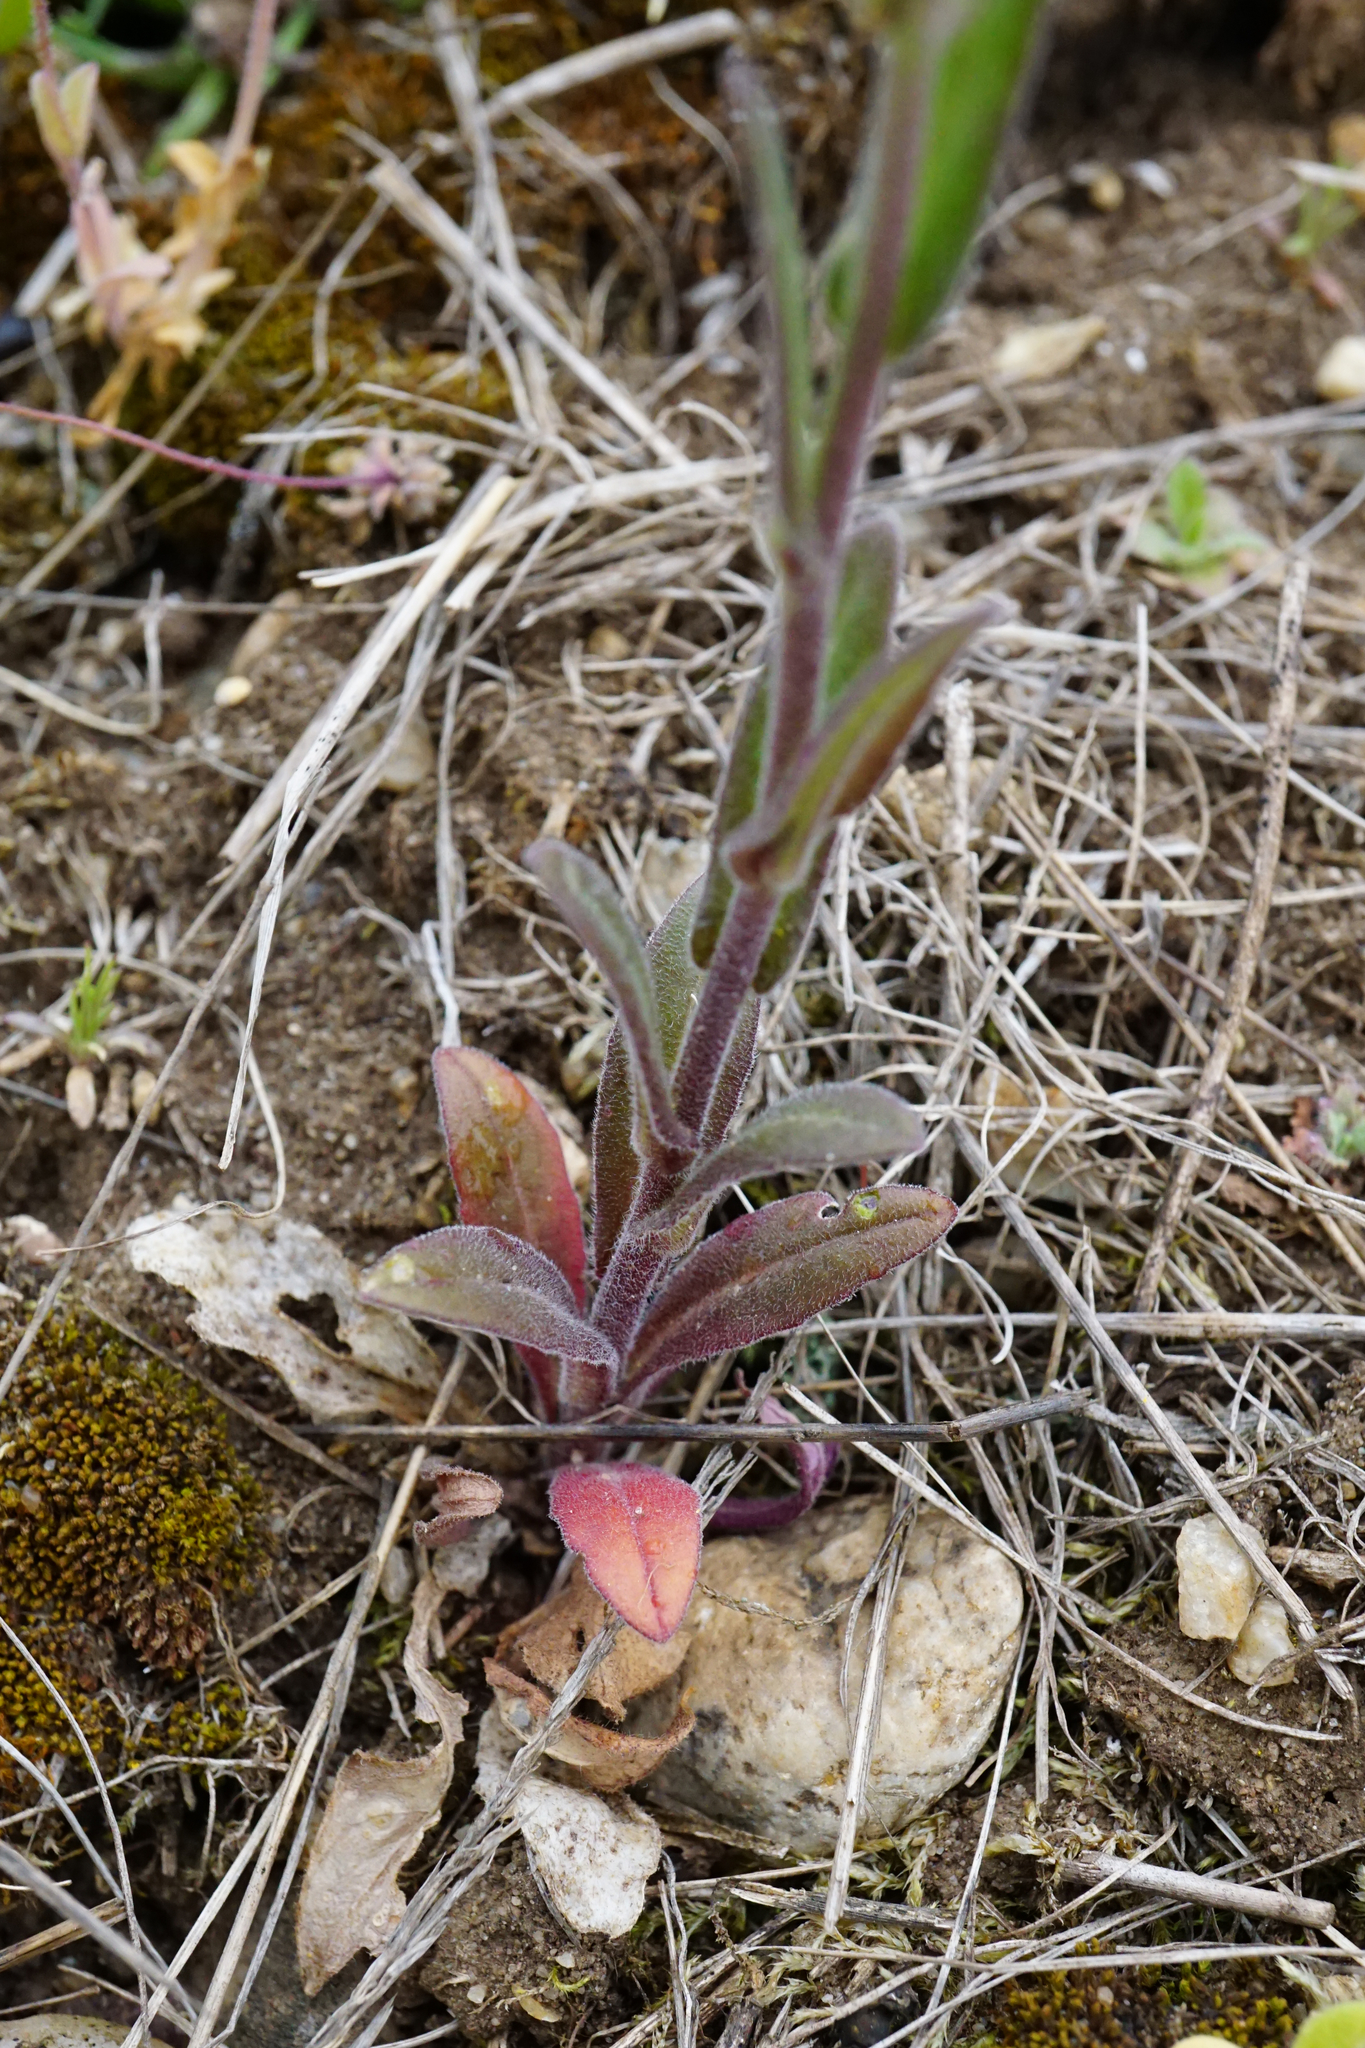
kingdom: Plantae
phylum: Tracheophyta
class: Magnoliopsida
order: Brassicales
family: Brassicaceae
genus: Camelina
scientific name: Camelina microcarpa
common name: Lesser gold-of-pleasure
